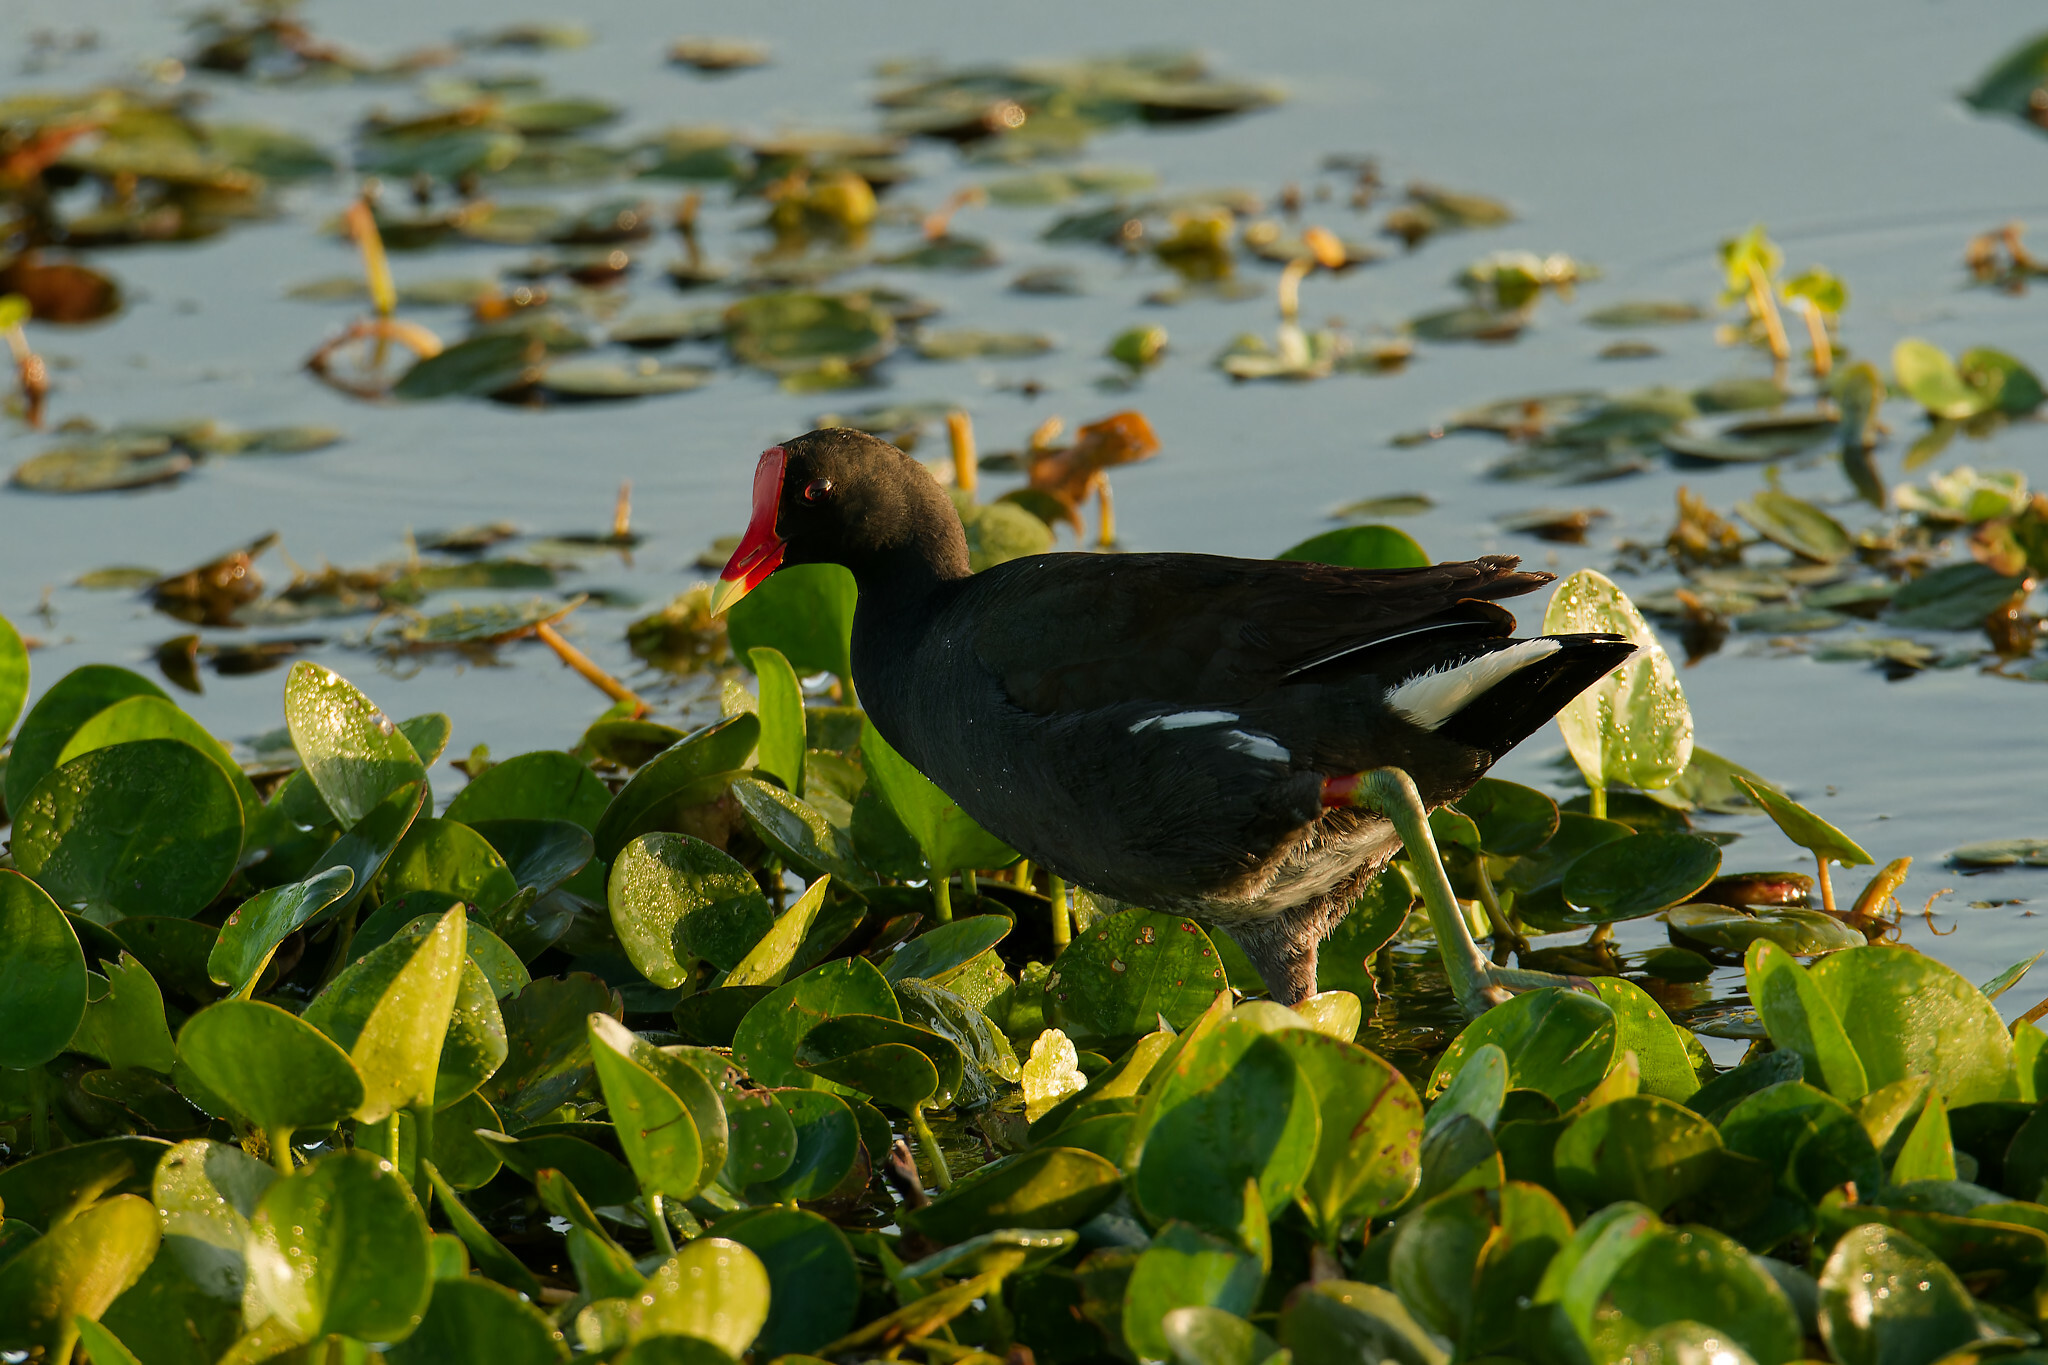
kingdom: Animalia
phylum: Chordata
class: Aves
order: Gruiformes
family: Rallidae
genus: Gallinula
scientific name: Gallinula chloropus
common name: Common moorhen
